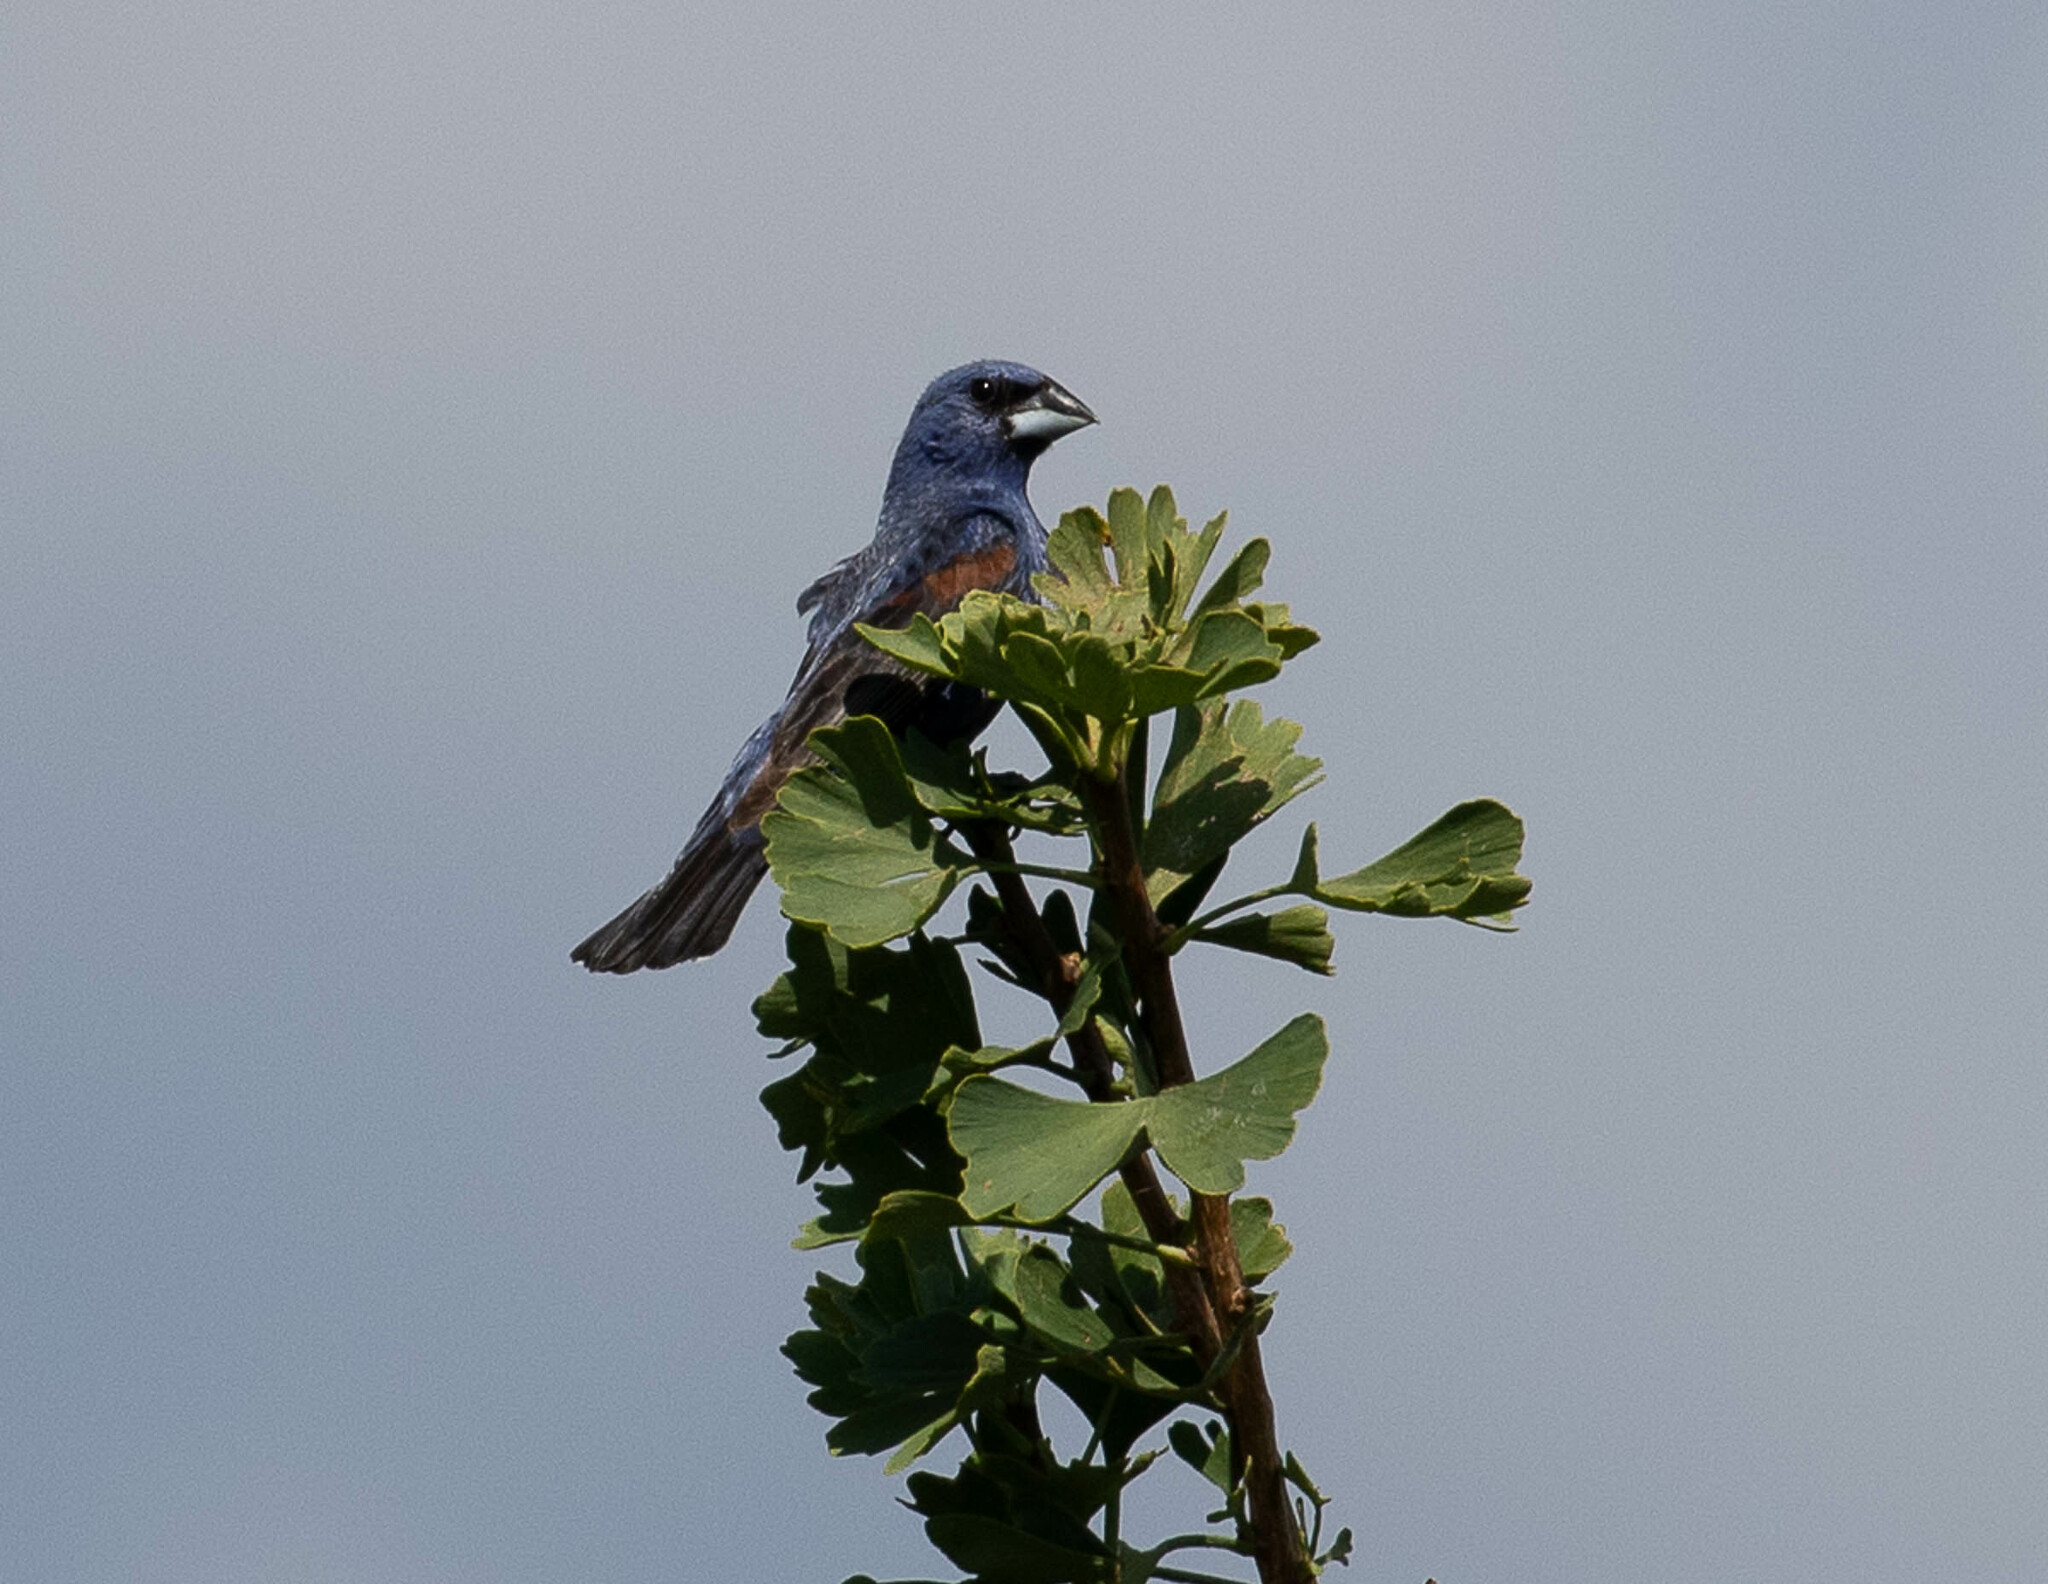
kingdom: Animalia
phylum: Chordata
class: Aves
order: Passeriformes
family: Cardinalidae
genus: Passerina
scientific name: Passerina caerulea
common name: Blue grosbeak
